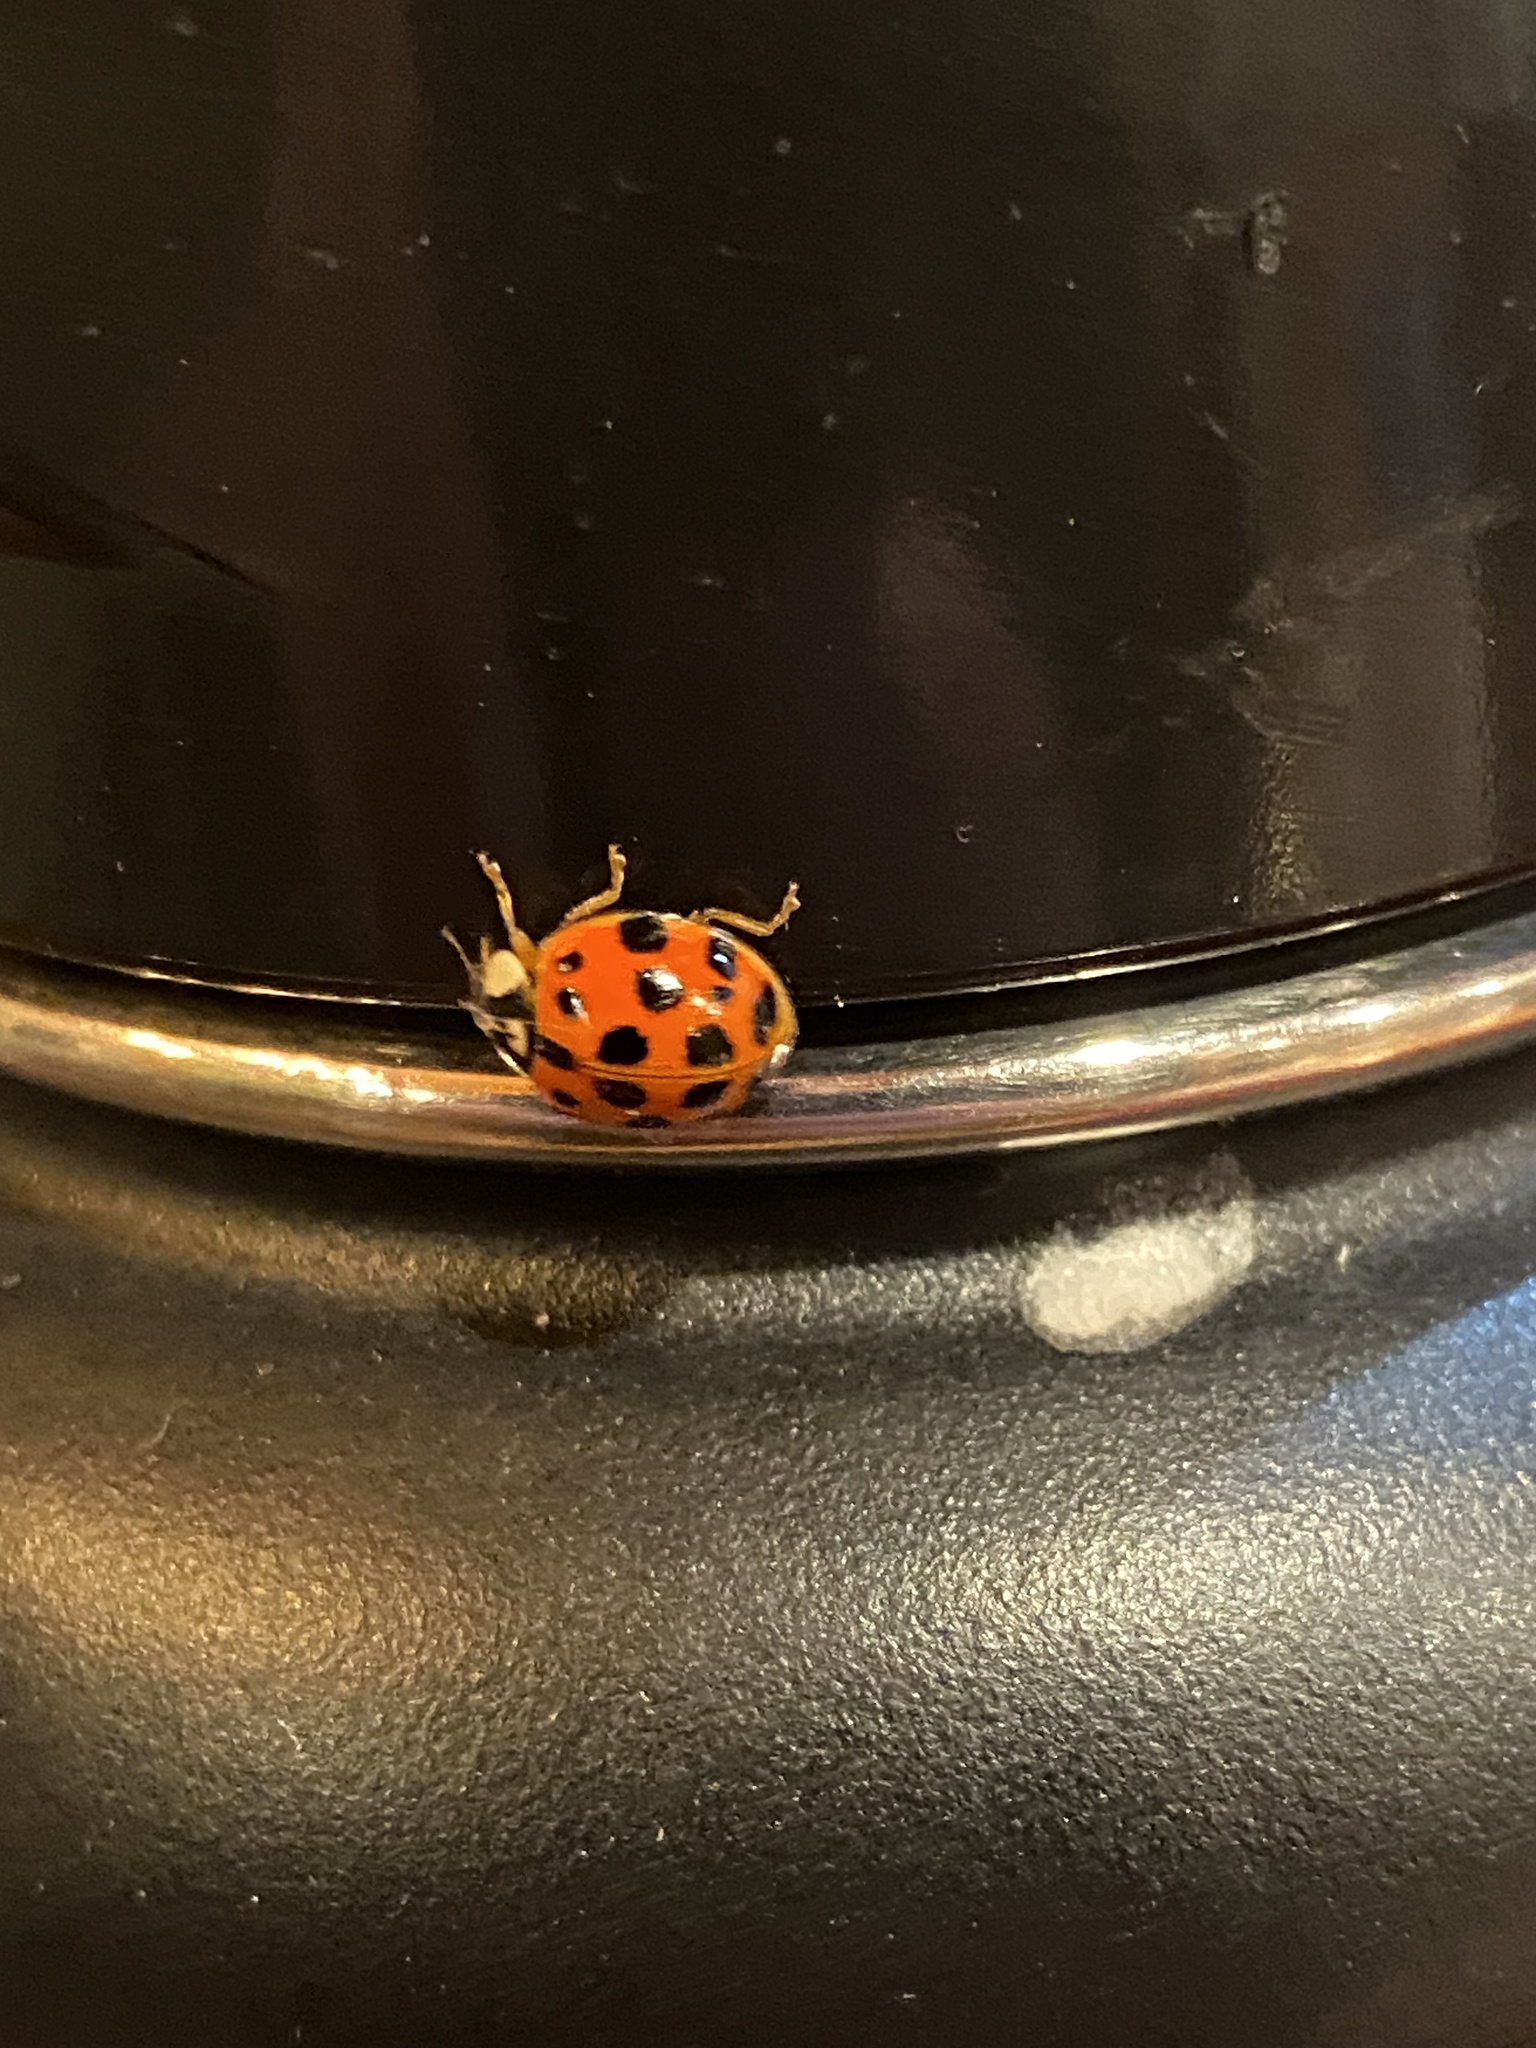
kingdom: Animalia
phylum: Arthropoda
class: Insecta
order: Coleoptera
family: Coccinellidae
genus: Harmonia
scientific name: Harmonia axyridis
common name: Harlequin ladybird
